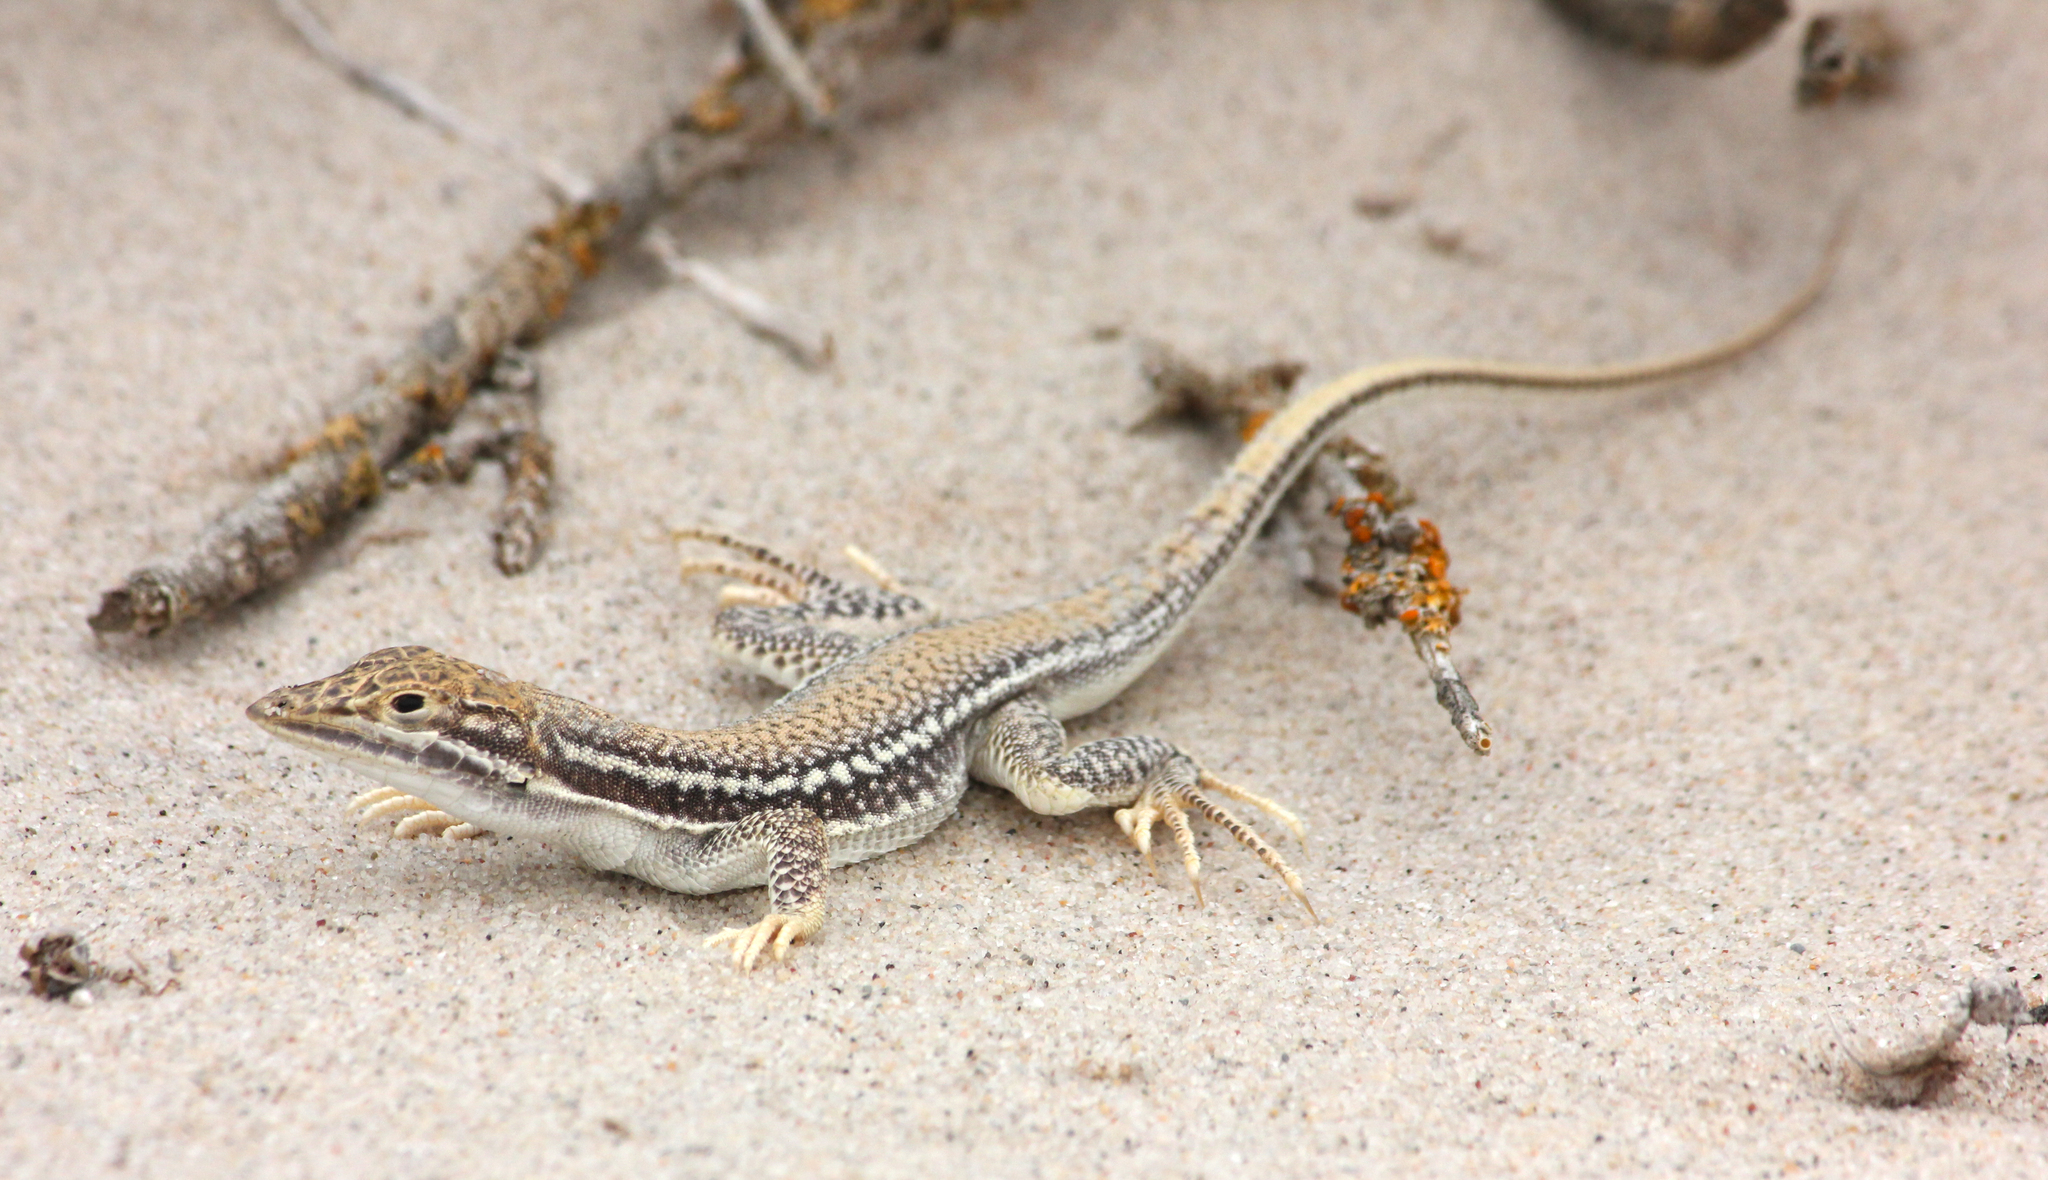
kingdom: Animalia
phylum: Chordata
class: Squamata
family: Lacertidae
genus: Meroles
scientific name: Meroles ctenodactylus
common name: Giant desert lizard
